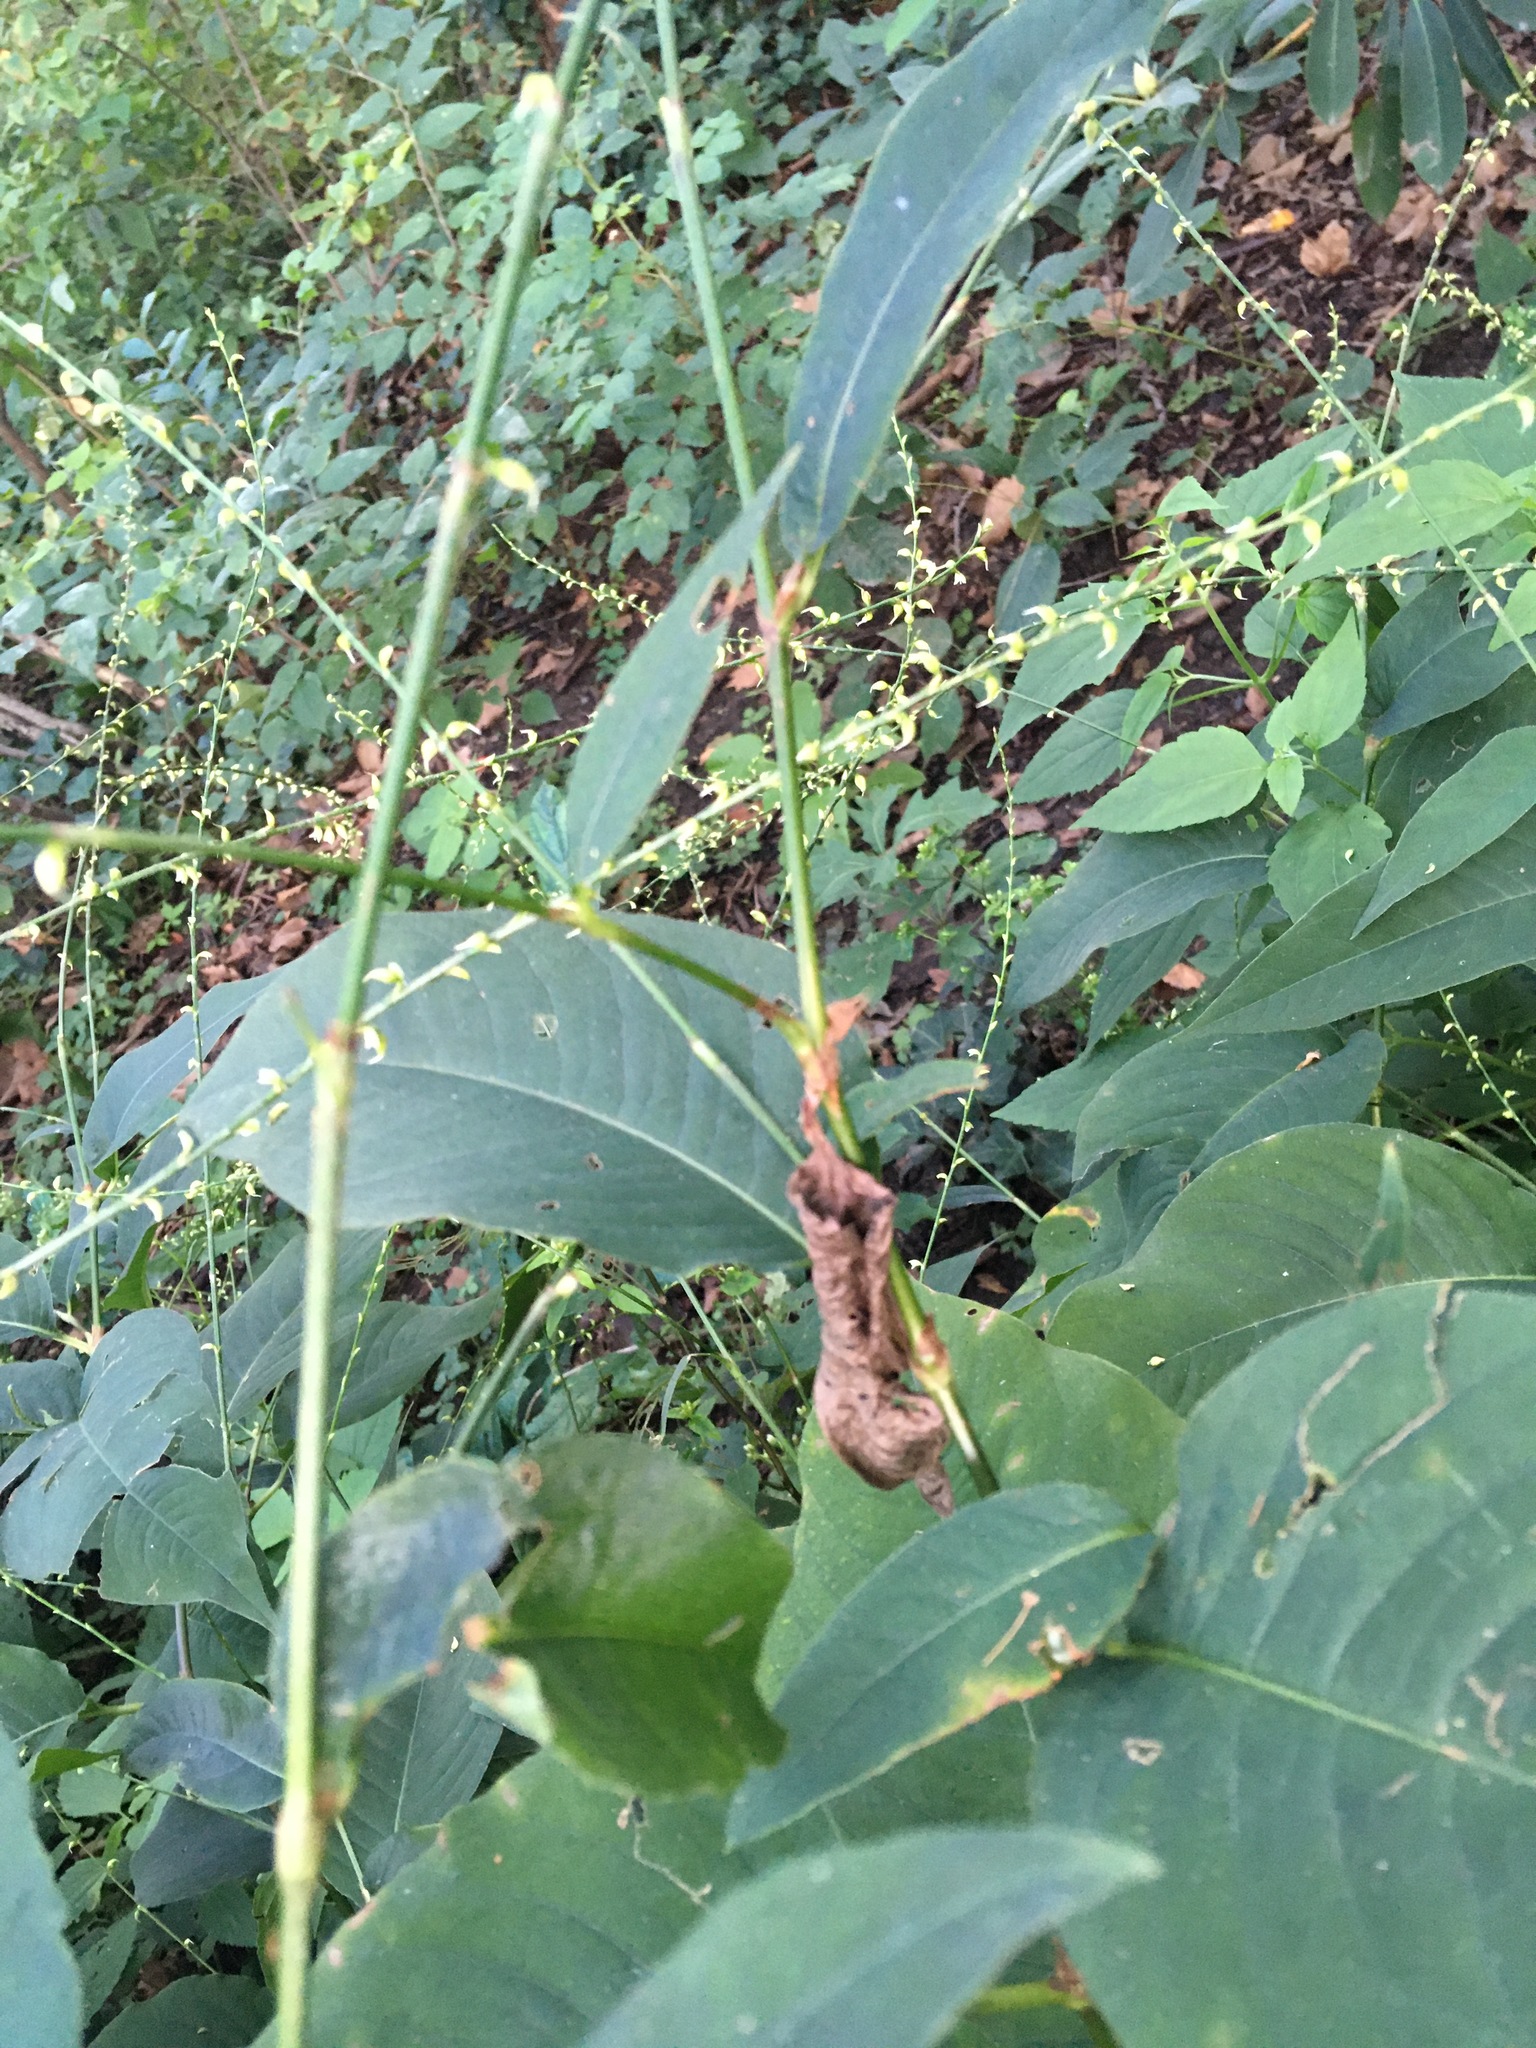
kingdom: Plantae
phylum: Tracheophyta
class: Magnoliopsida
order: Caryophyllales
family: Polygonaceae
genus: Persicaria
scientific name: Persicaria virginiana
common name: Jumpseed
